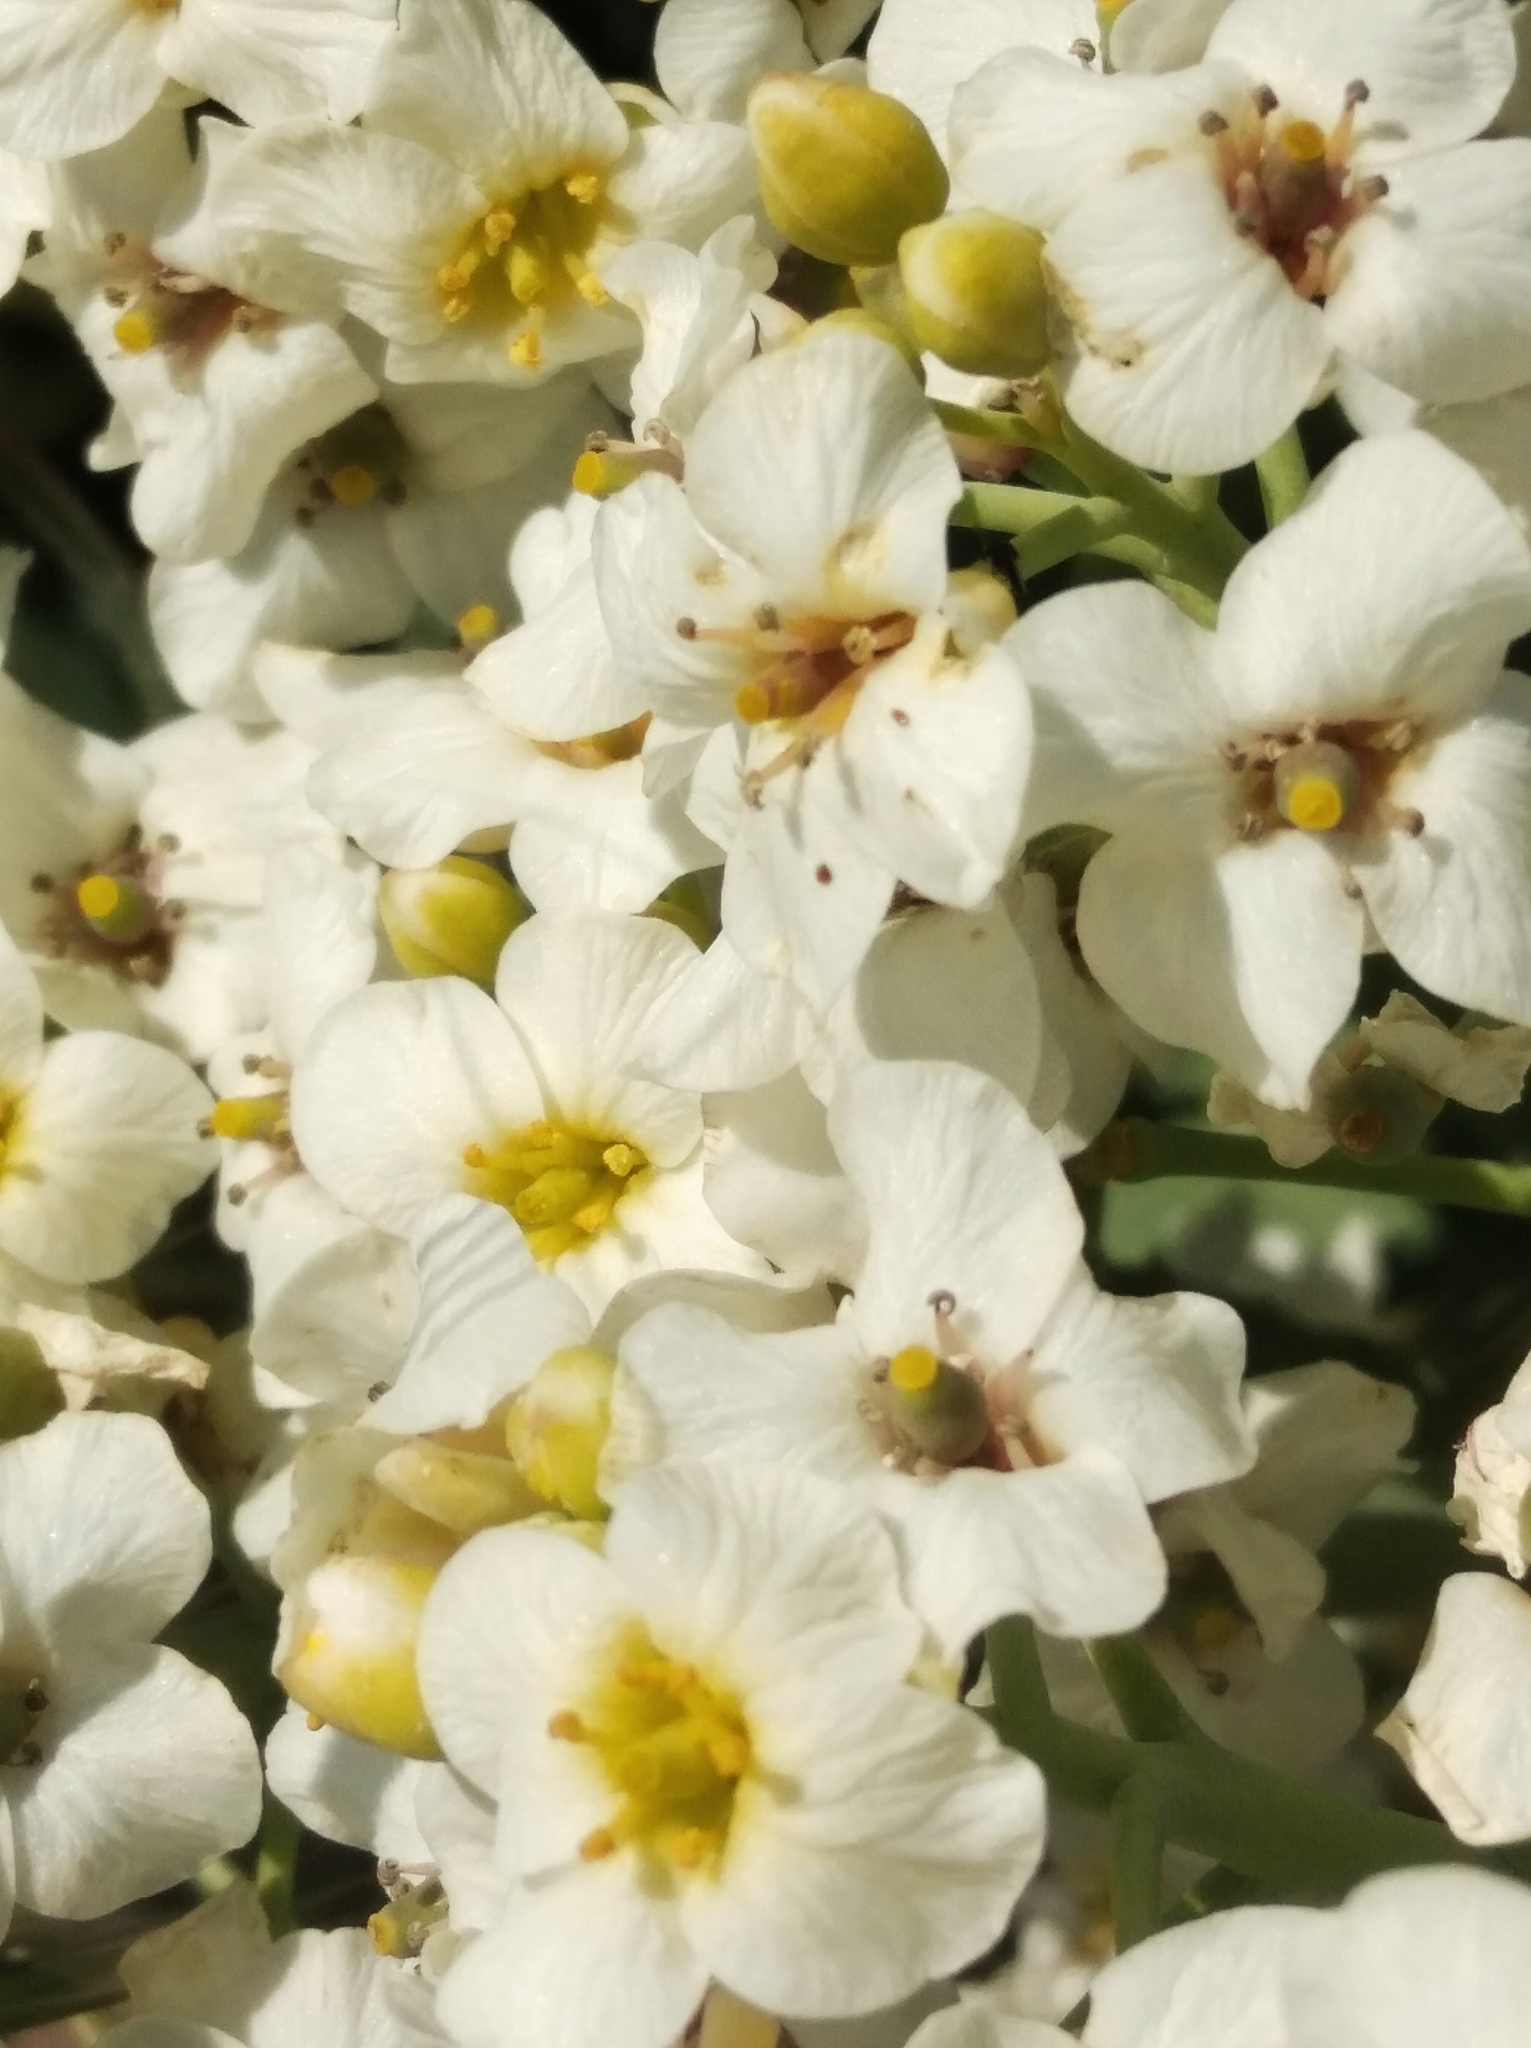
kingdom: Plantae
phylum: Tracheophyta
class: Magnoliopsida
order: Brassicales
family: Brassicaceae
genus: Crambe
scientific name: Crambe maritima
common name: Sea-kale
